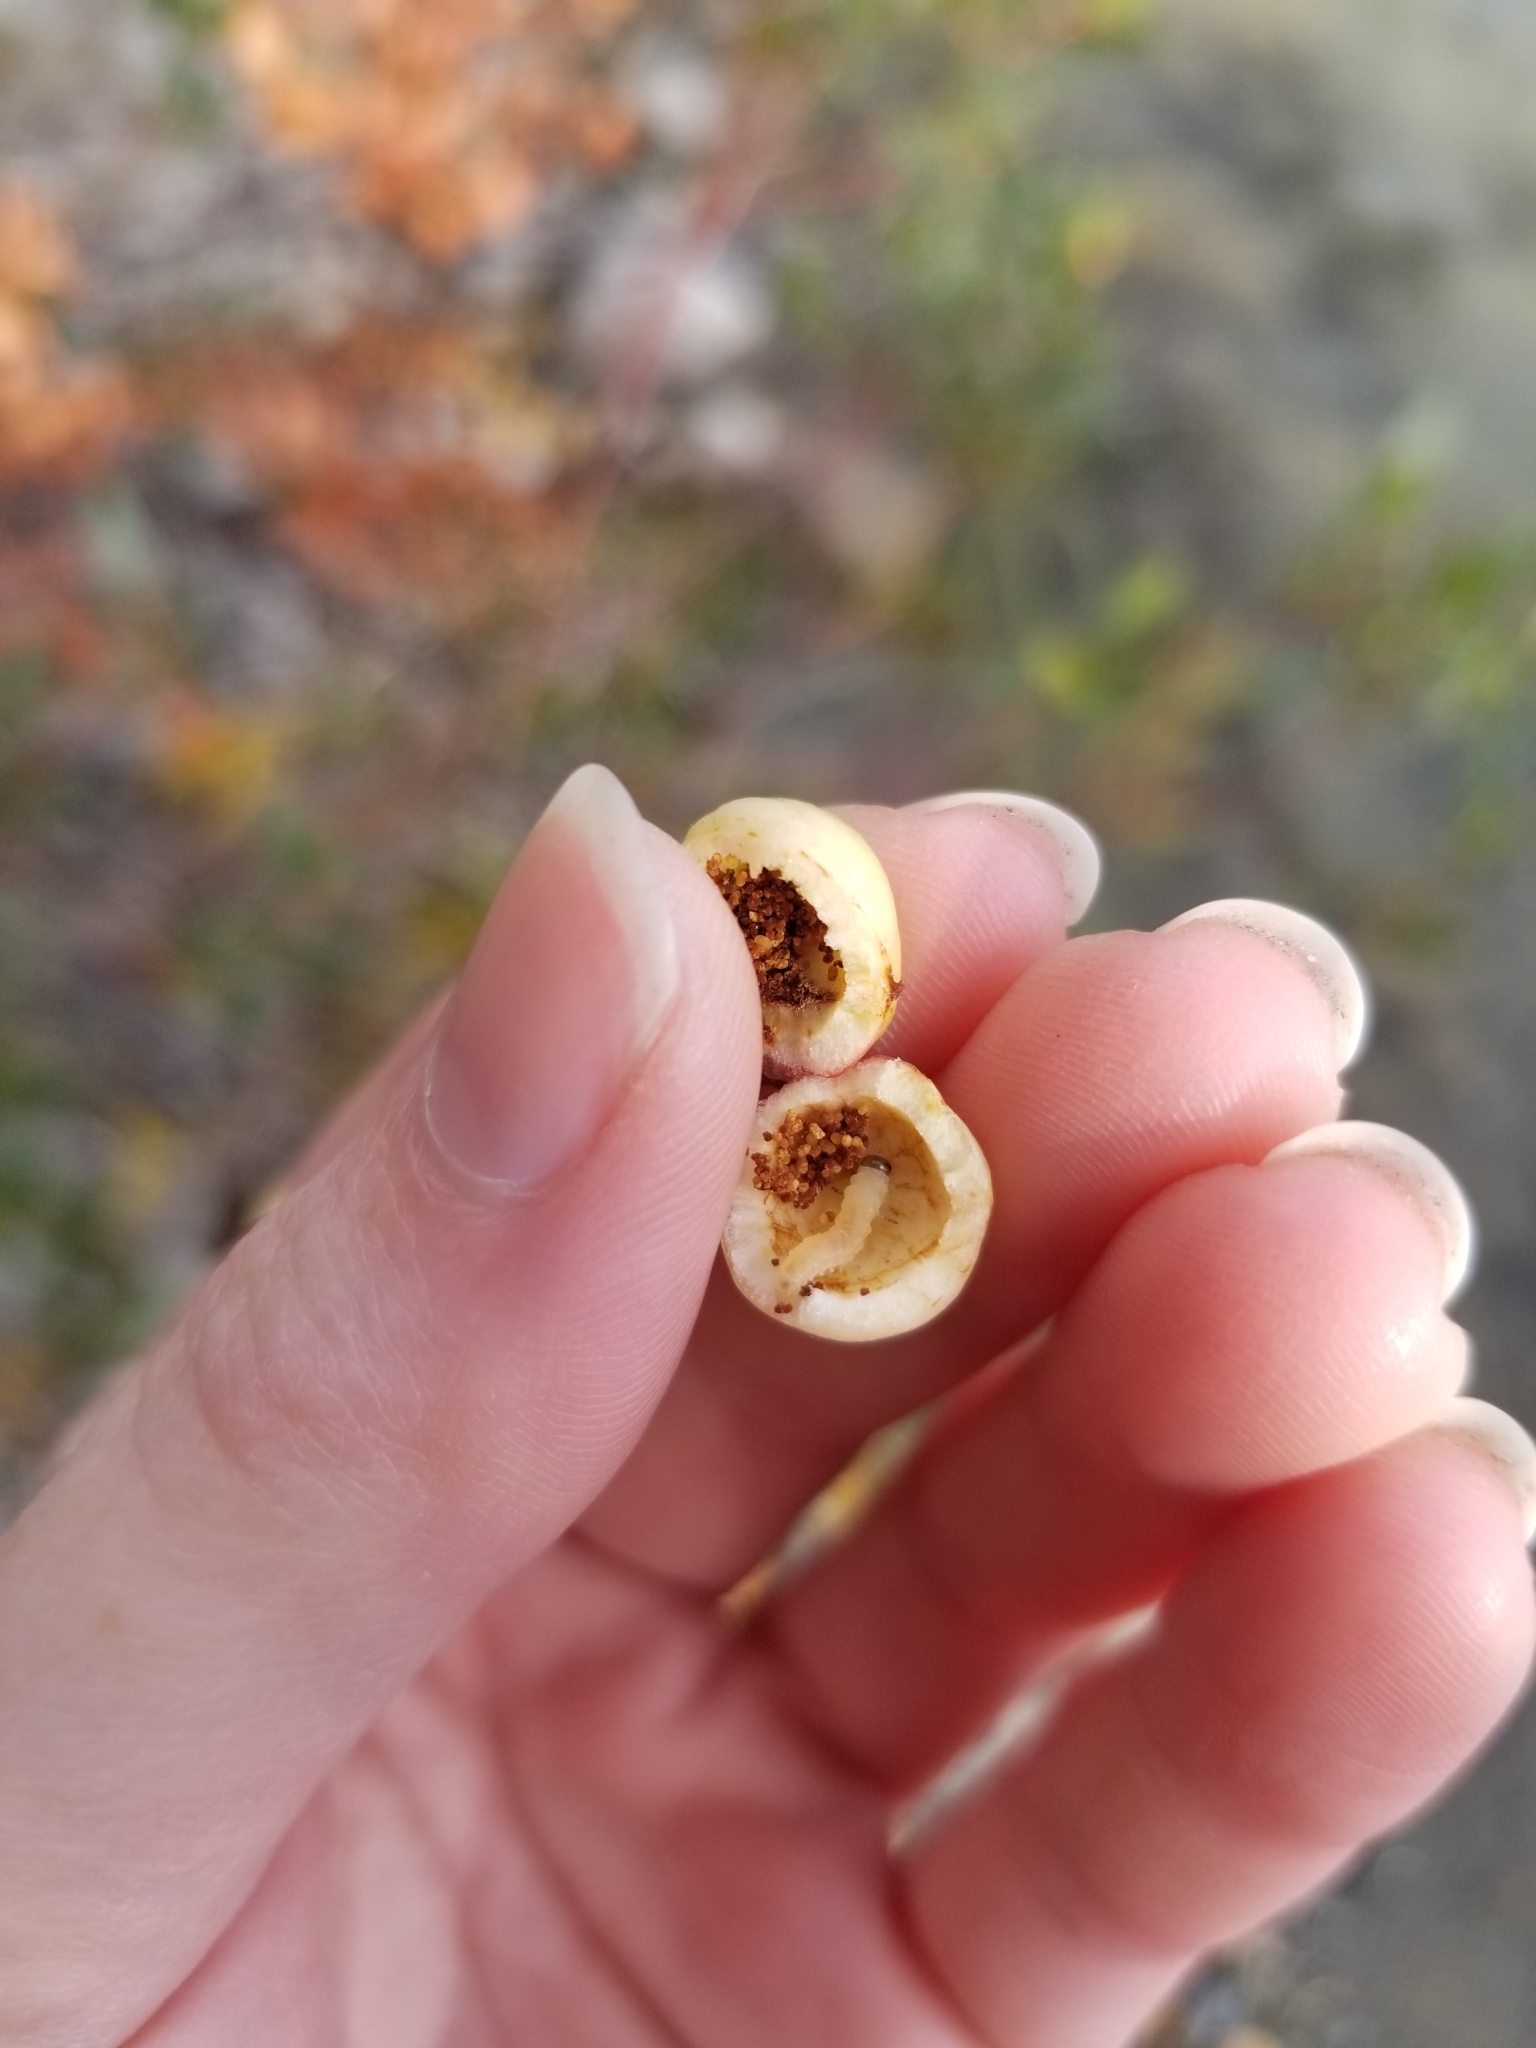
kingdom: Animalia
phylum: Arthropoda
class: Insecta
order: Hymenoptera
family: Tenthredinidae
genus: Euura
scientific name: Euura
